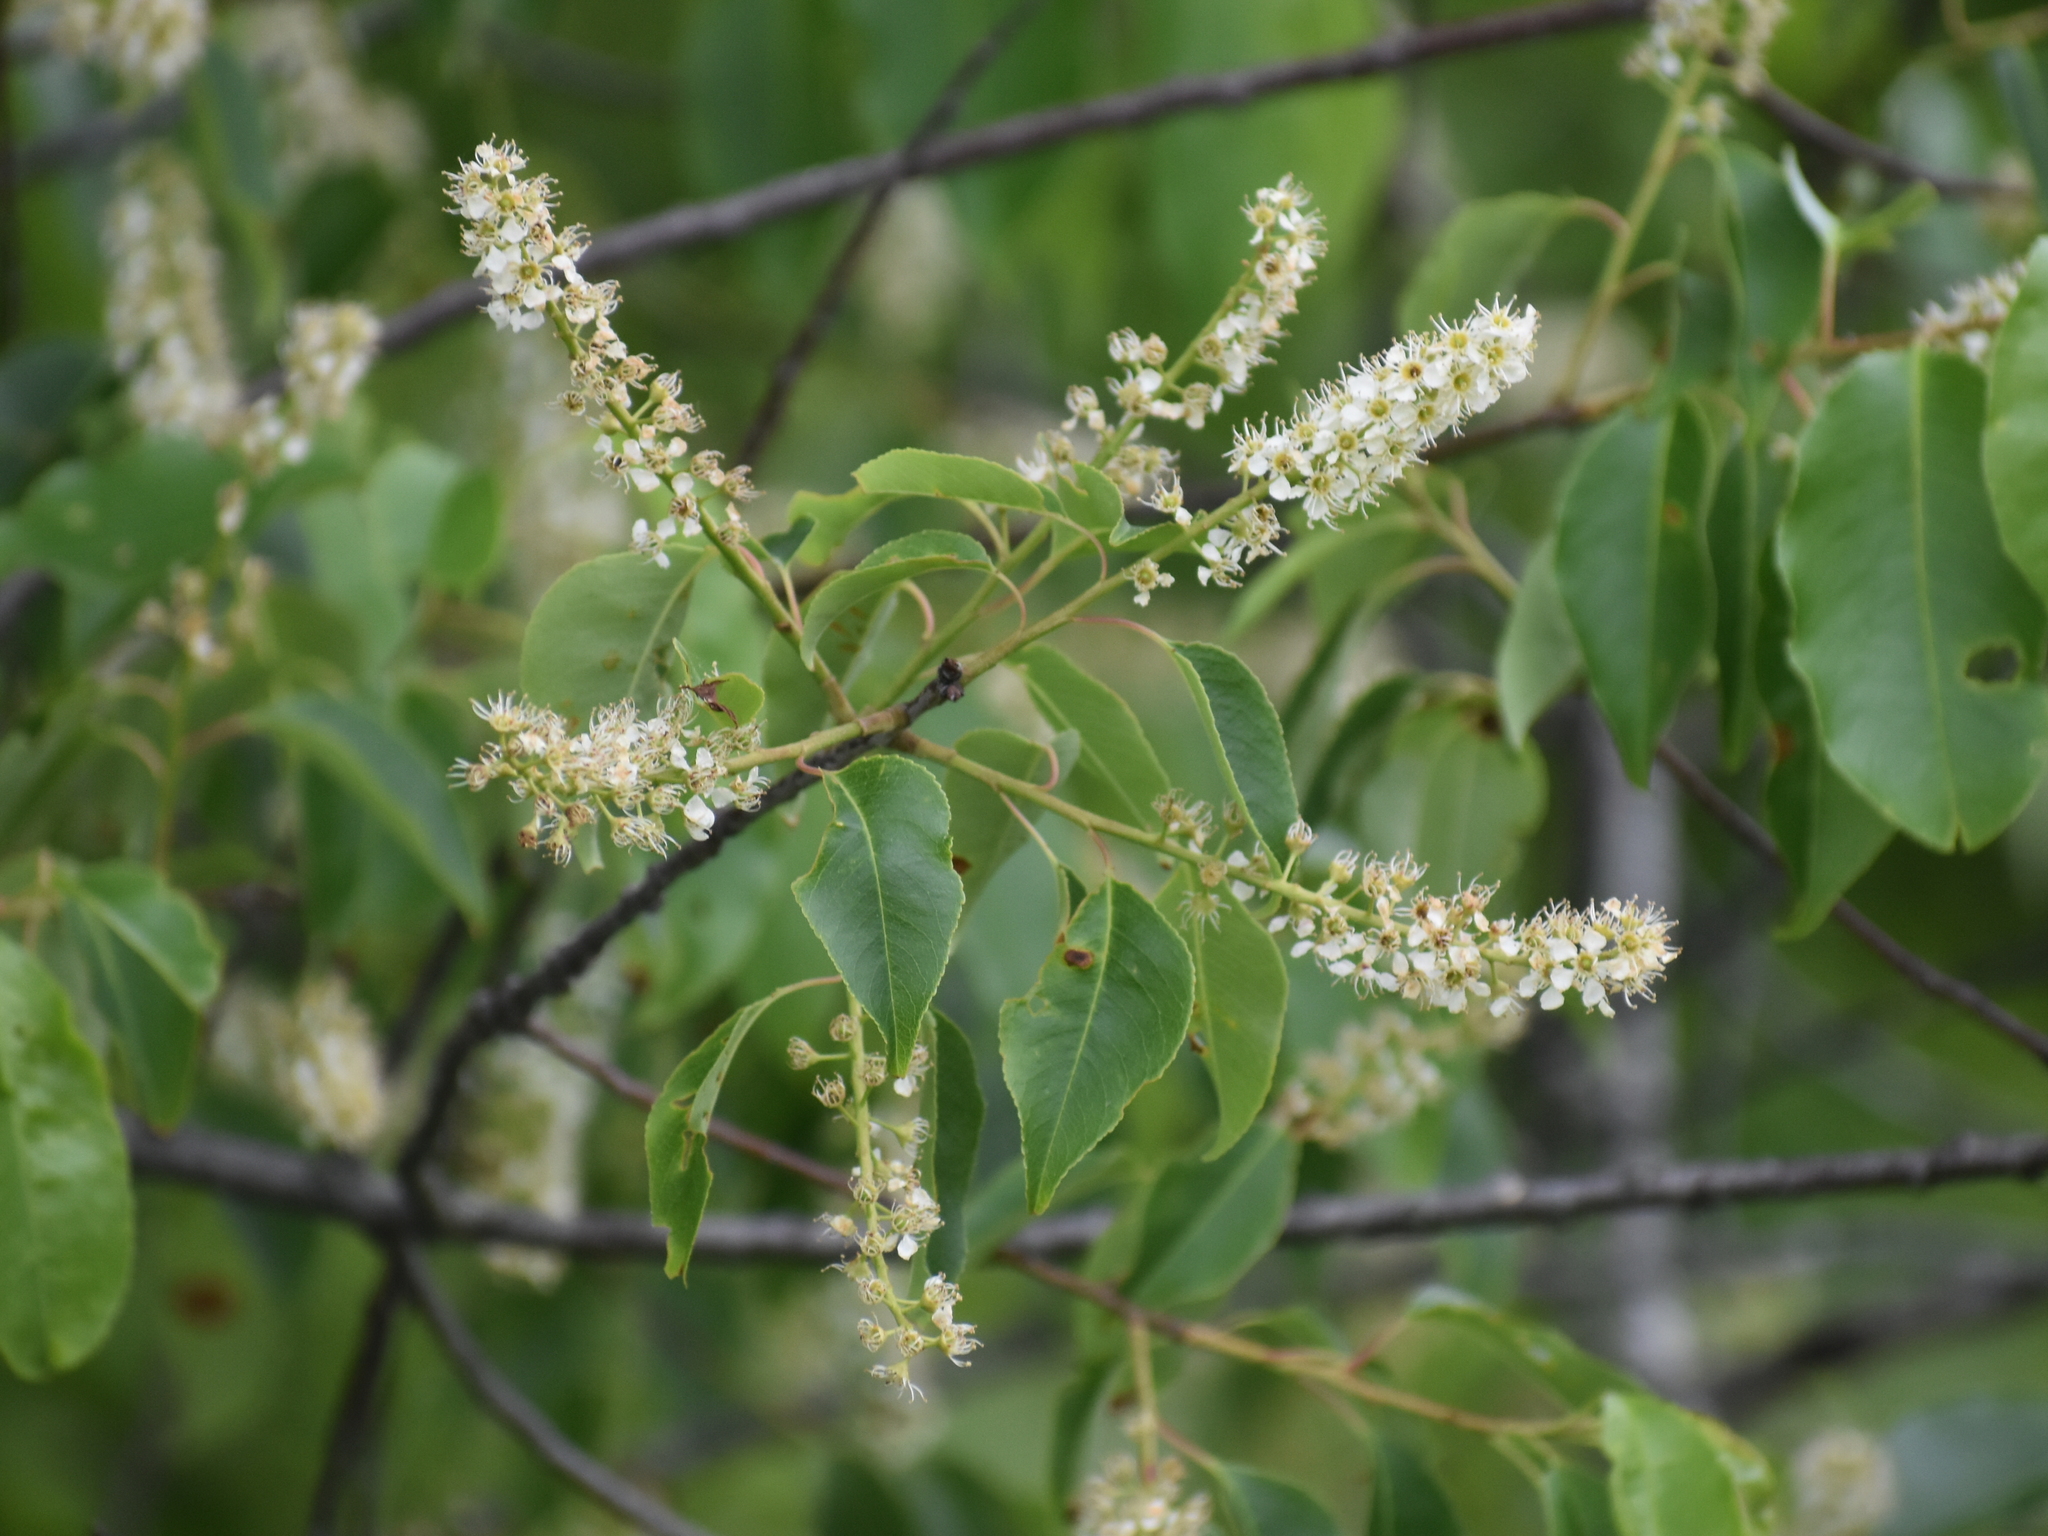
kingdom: Plantae
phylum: Tracheophyta
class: Magnoliopsida
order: Rosales
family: Rosaceae
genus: Prunus
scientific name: Prunus serotina
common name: Black cherry
